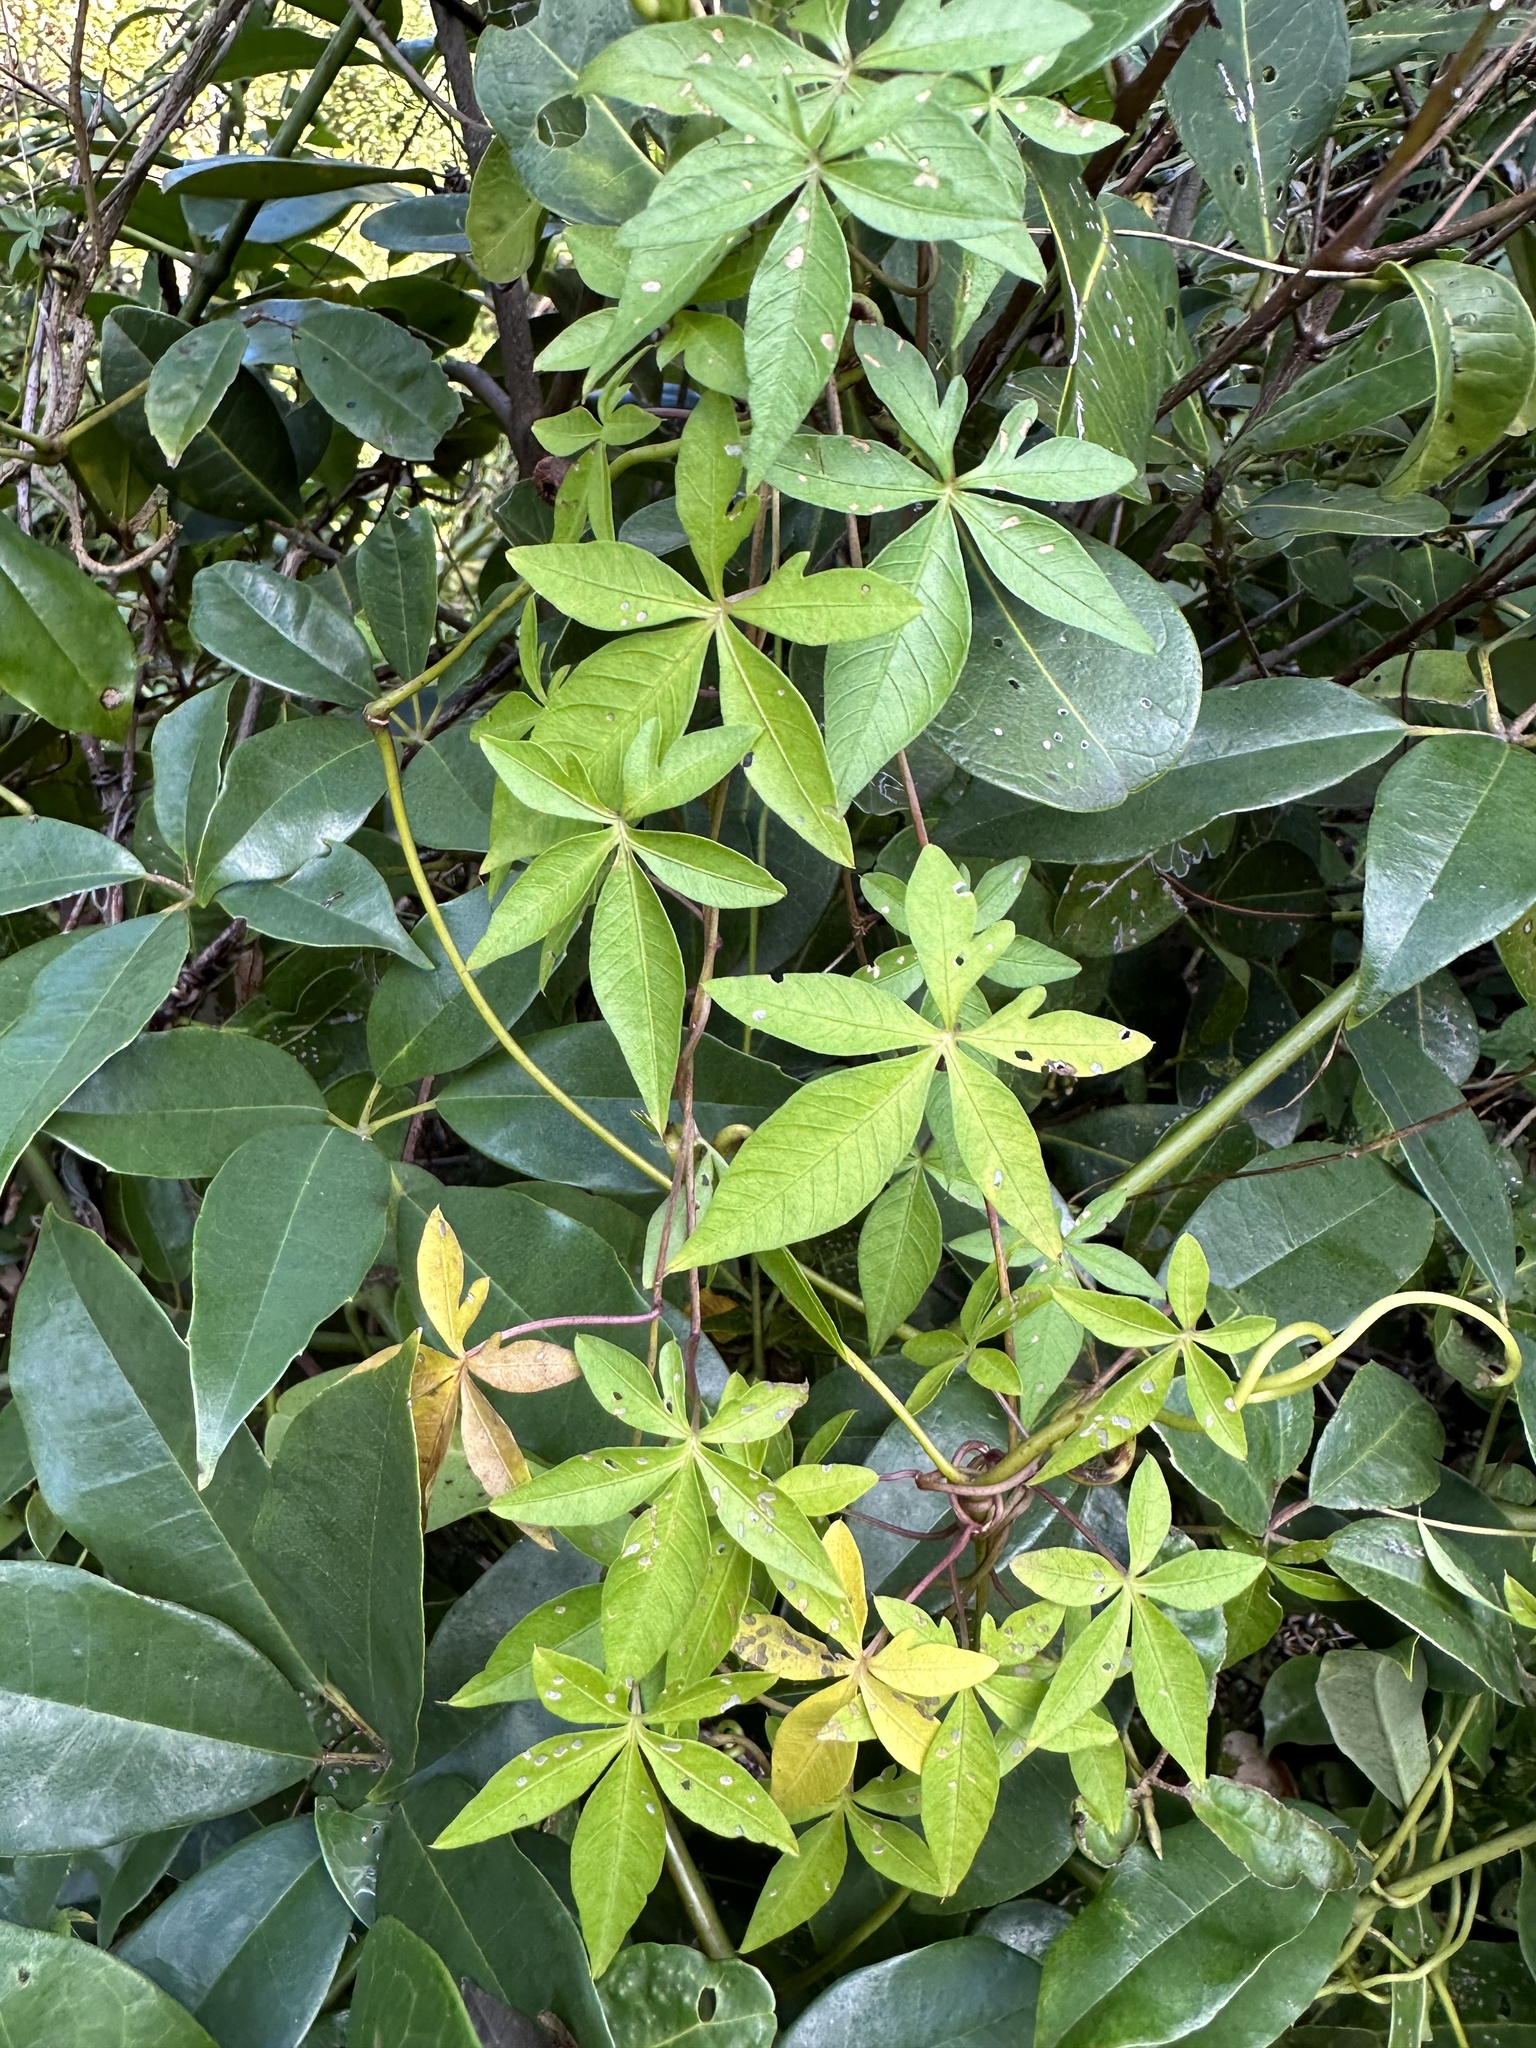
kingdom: Plantae
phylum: Tracheophyta
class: Magnoliopsida
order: Solanales
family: Convolvulaceae
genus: Ipomoea
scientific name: Ipomoea cairica
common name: Mile a minute vine
